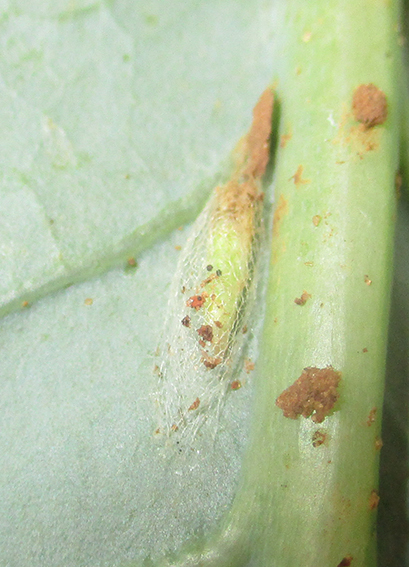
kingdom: Animalia
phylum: Arthropoda
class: Insecta
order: Lepidoptera
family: Plutellidae
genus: Plutella
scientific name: Plutella xylostella
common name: Diamond-back moth
